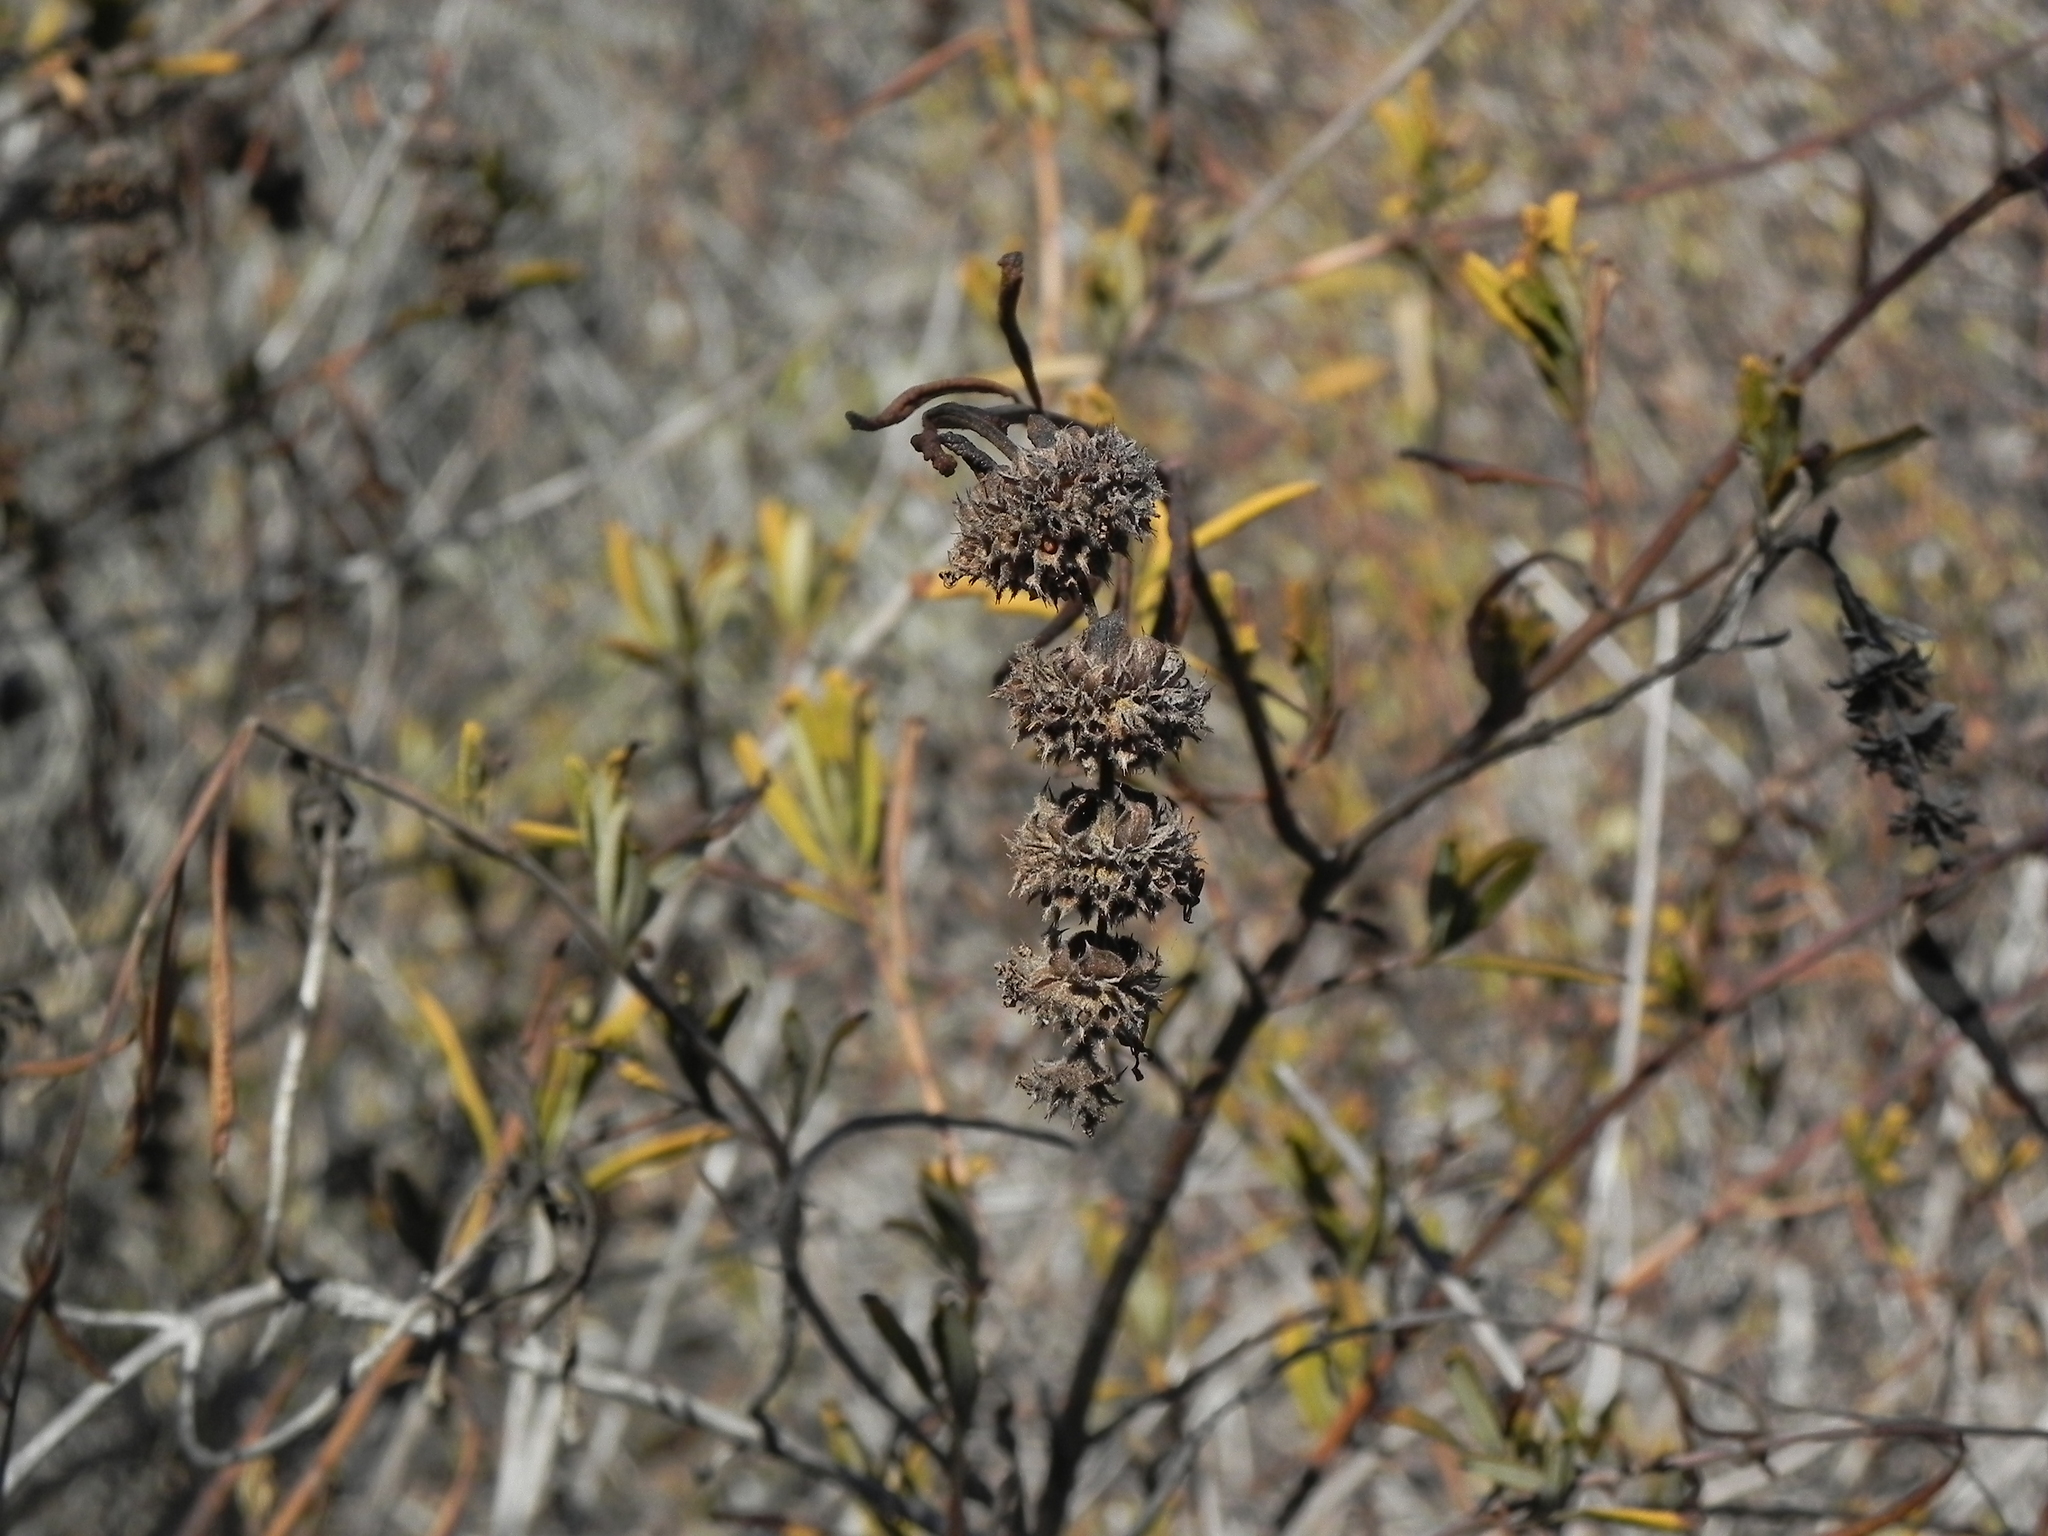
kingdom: Plantae
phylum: Tracheophyta
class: Magnoliopsida
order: Lamiales
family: Lamiaceae
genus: Salvia
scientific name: Salvia mellifera
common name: Black sage
